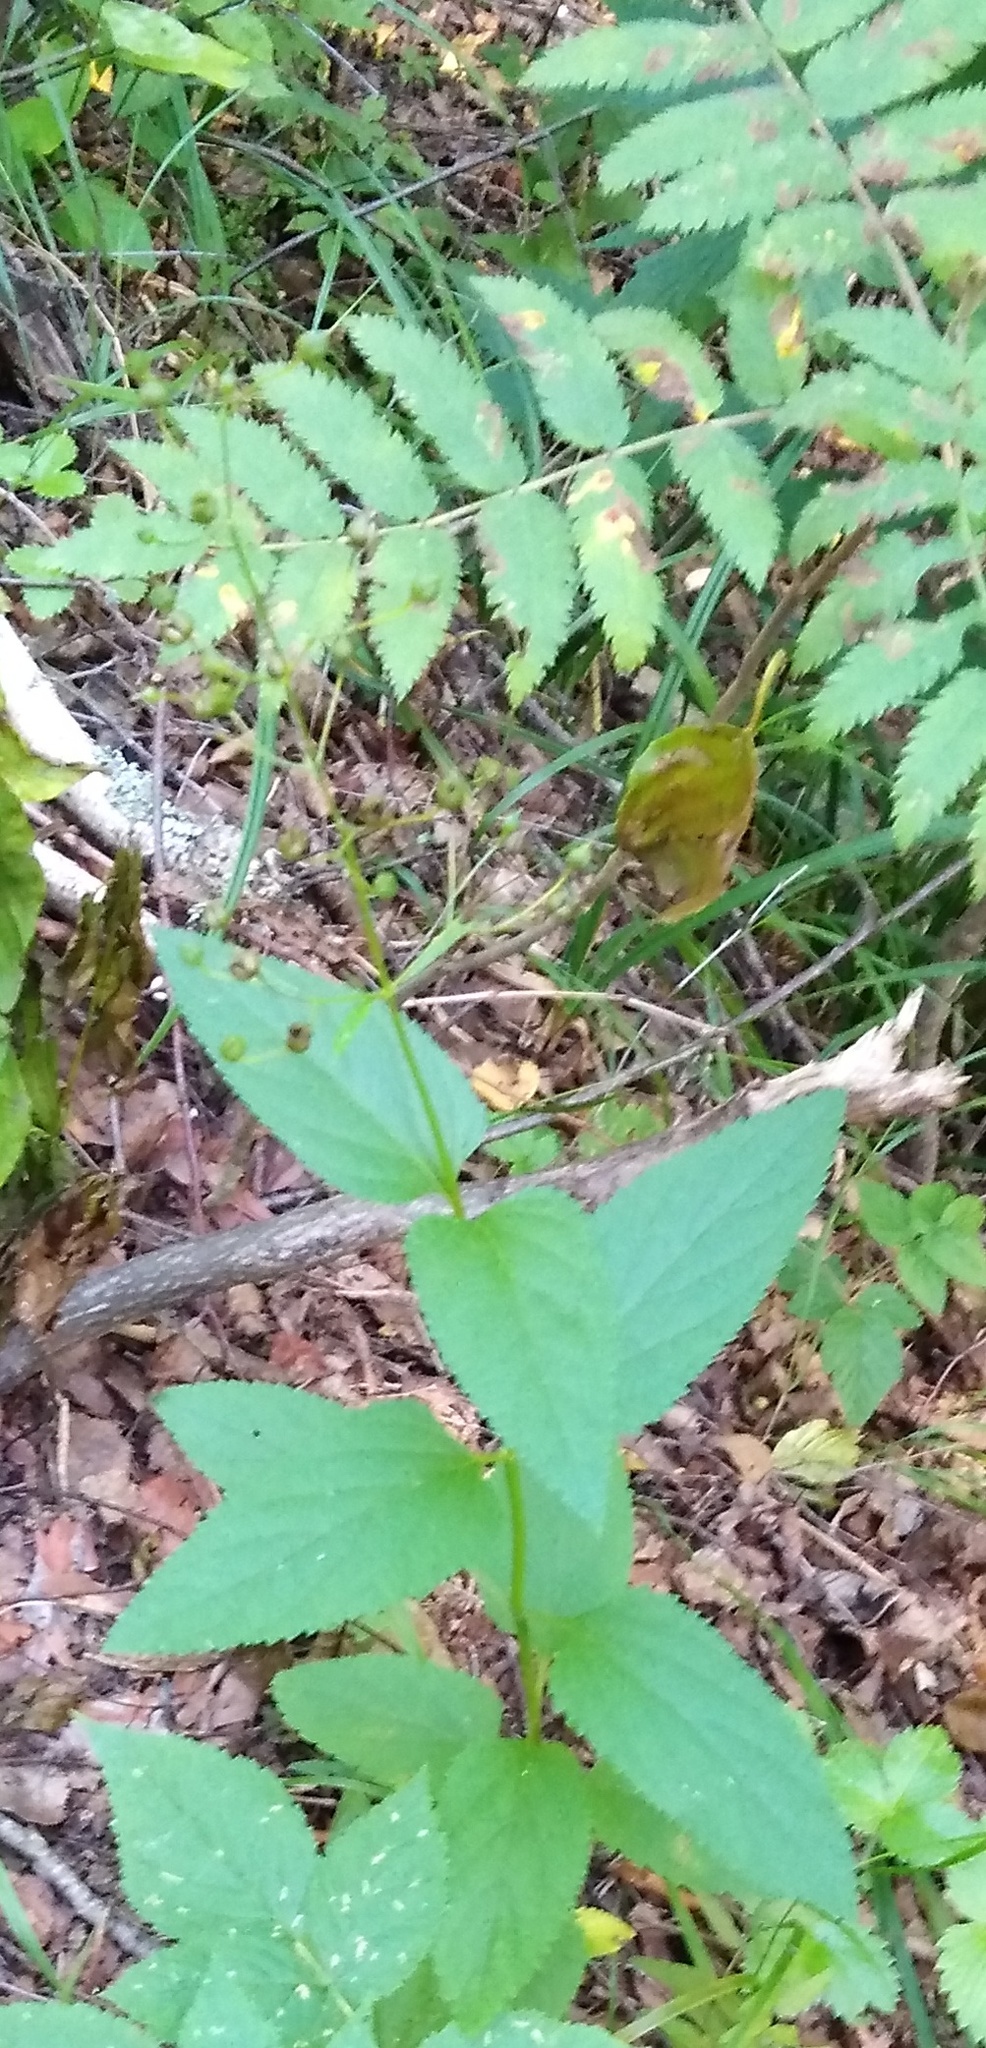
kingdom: Plantae
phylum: Tracheophyta
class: Magnoliopsida
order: Lamiales
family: Scrophulariaceae
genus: Scrophularia
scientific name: Scrophularia nodosa
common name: Common figwort
